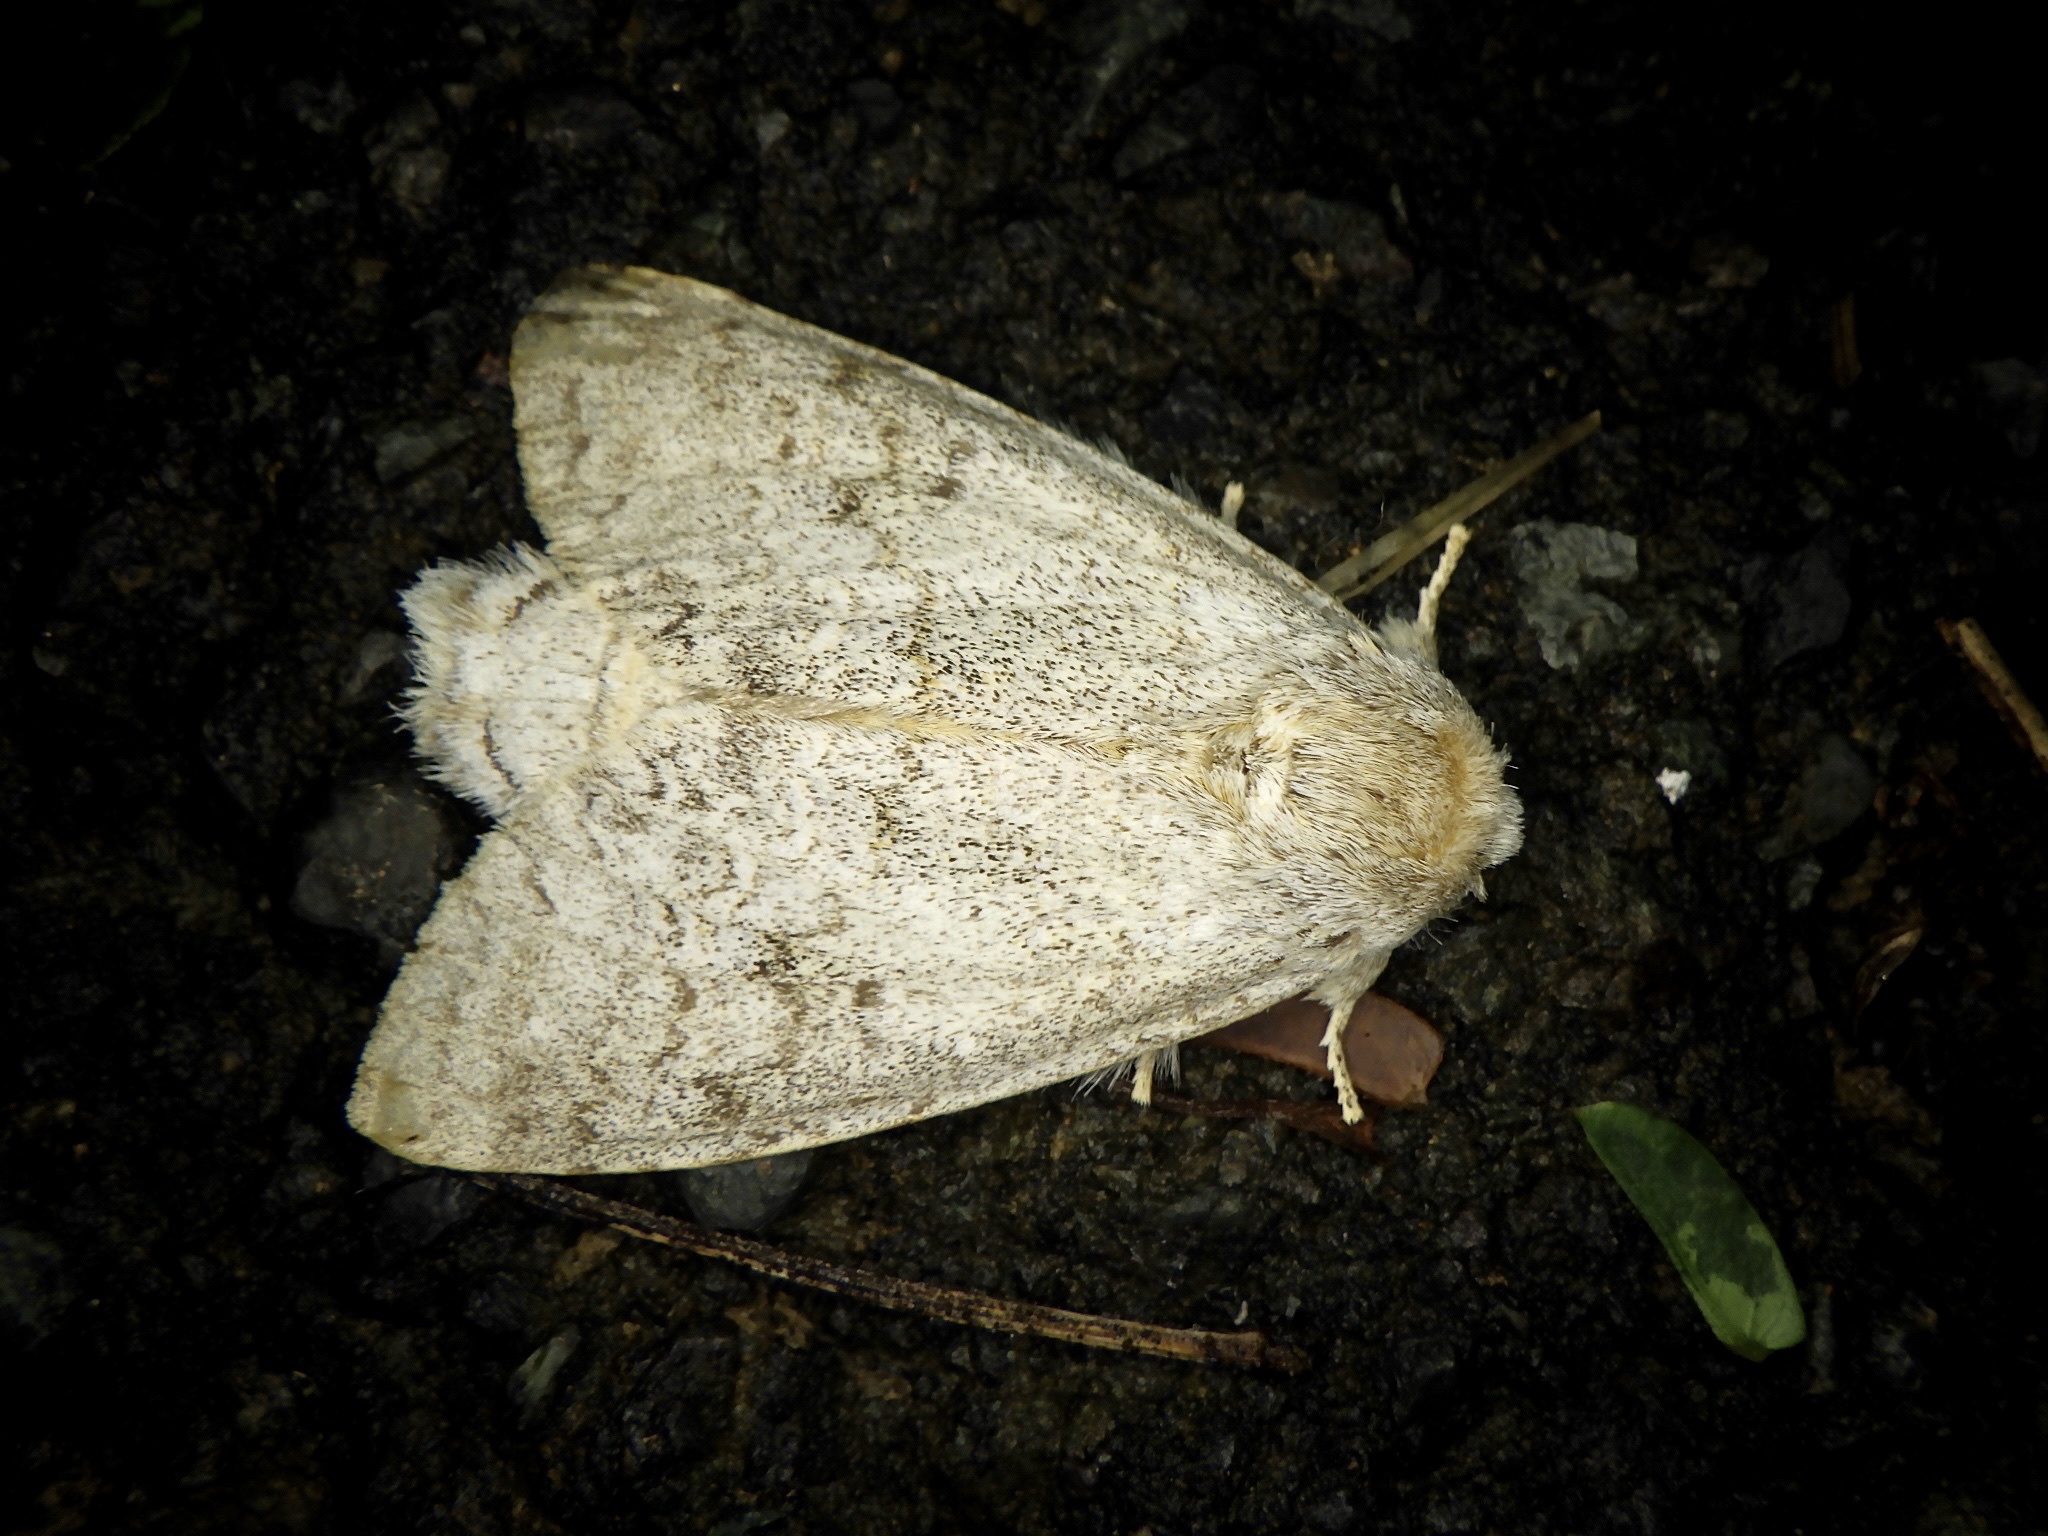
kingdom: Animalia
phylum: Arthropoda
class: Insecta
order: Lepidoptera
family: Notodontidae
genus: Mesophalera
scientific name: Mesophalera sigmata
